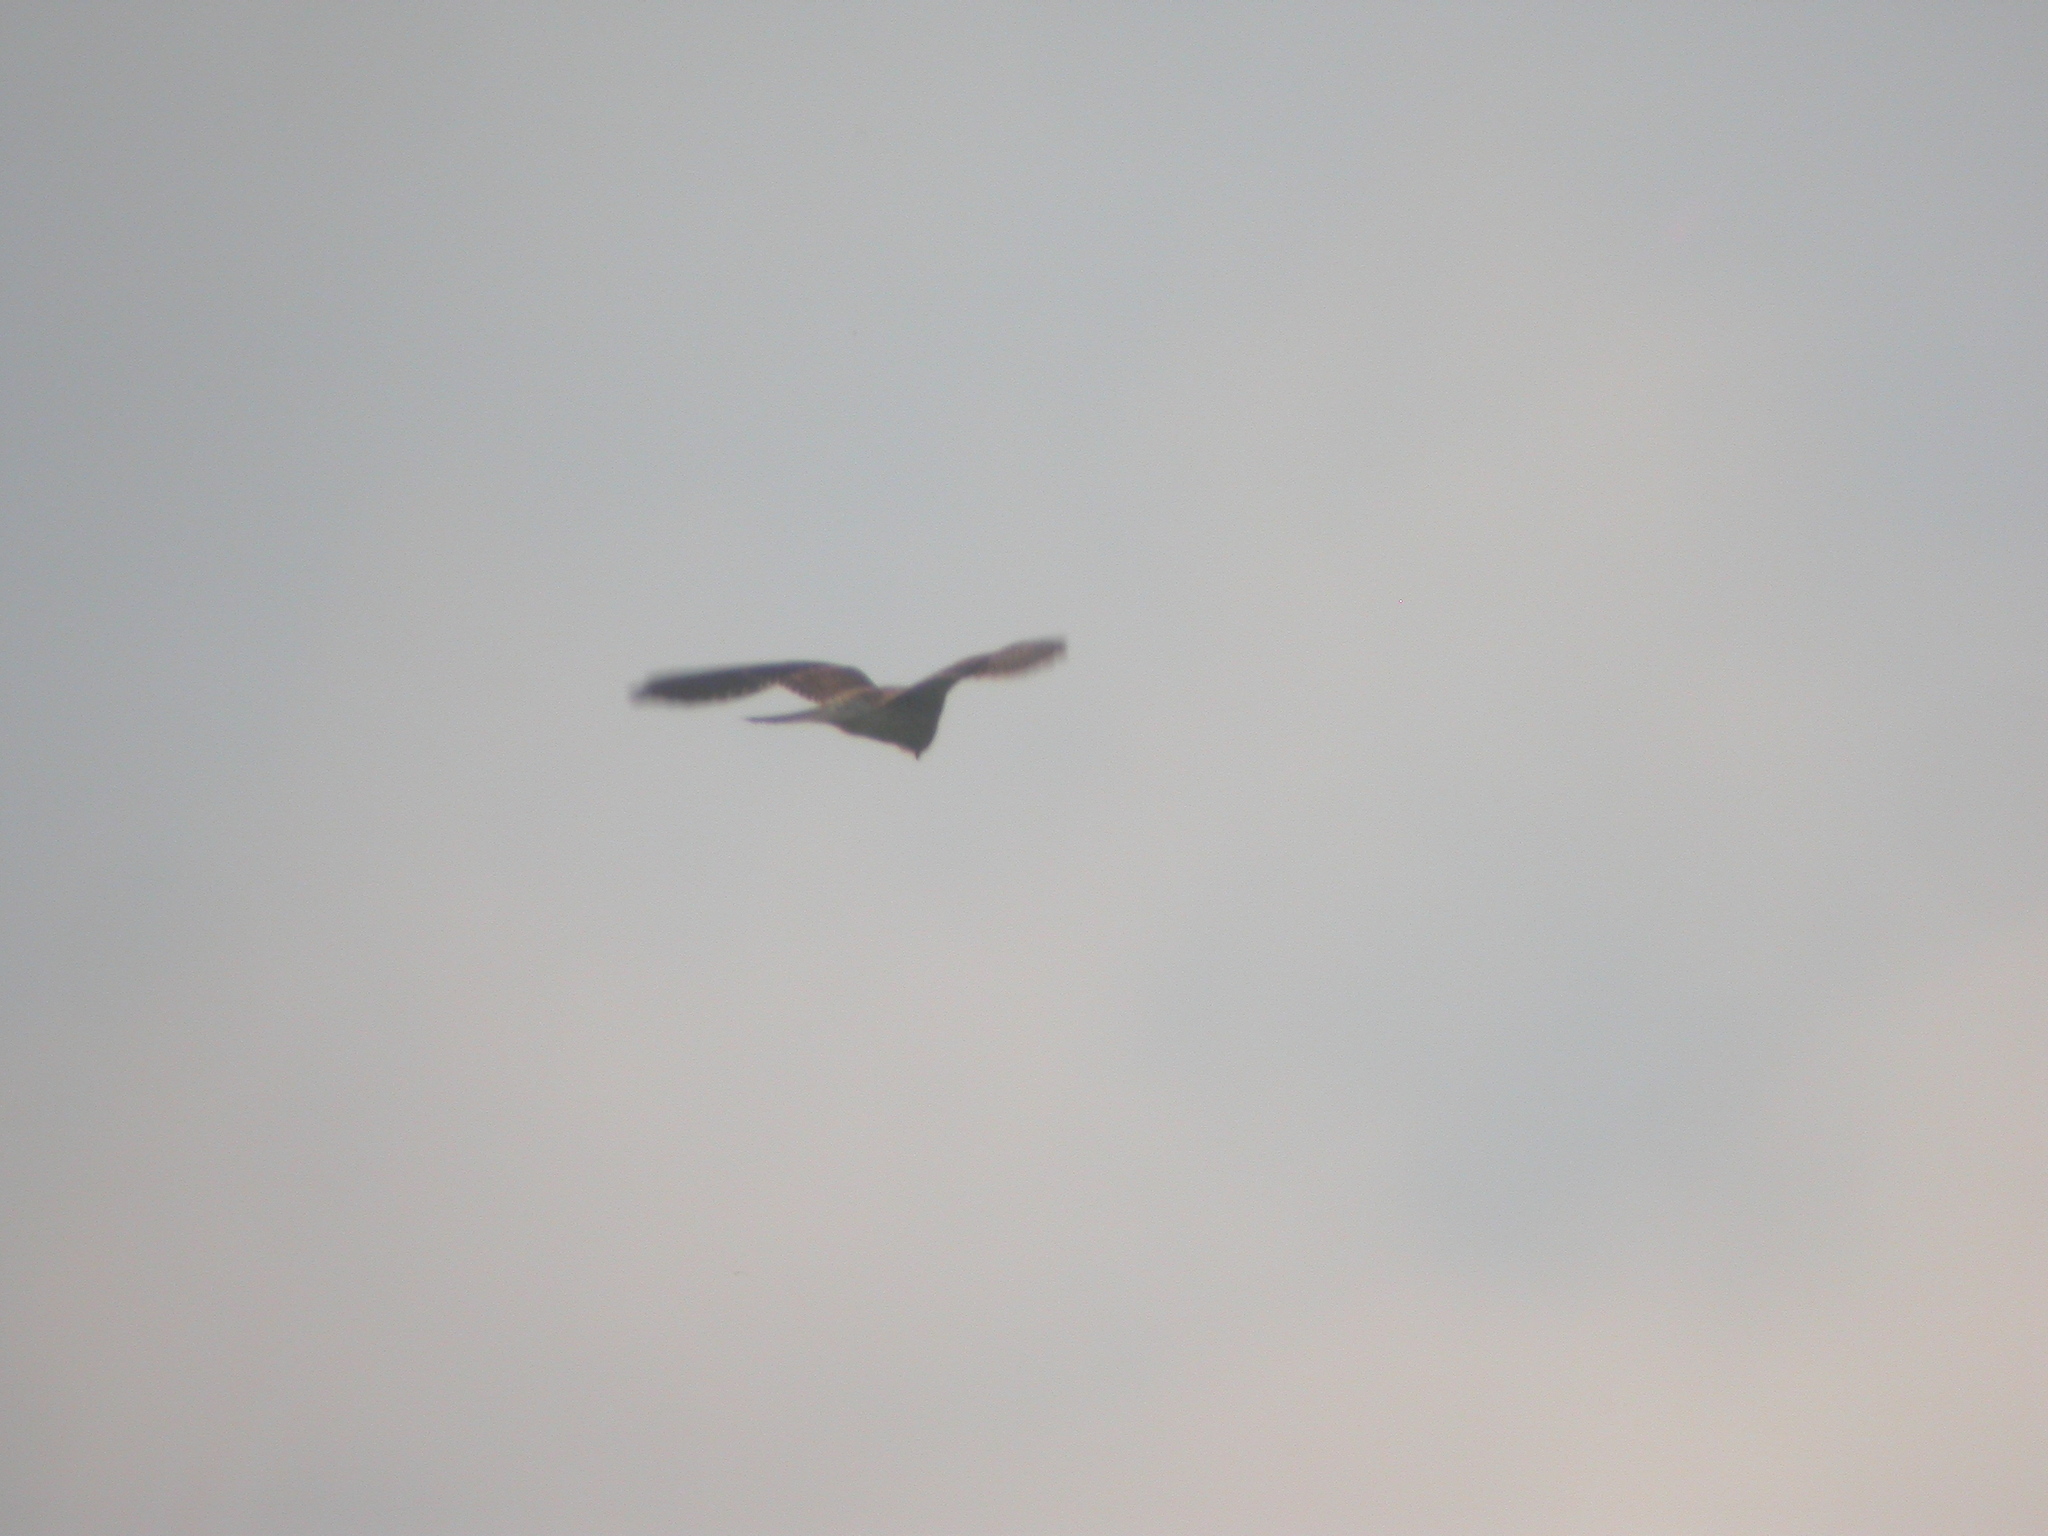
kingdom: Animalia
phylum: Chordata
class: Aves
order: Falconiformes
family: Falconidae
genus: Falco
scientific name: Falco tinnunculus
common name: Common kestrel
